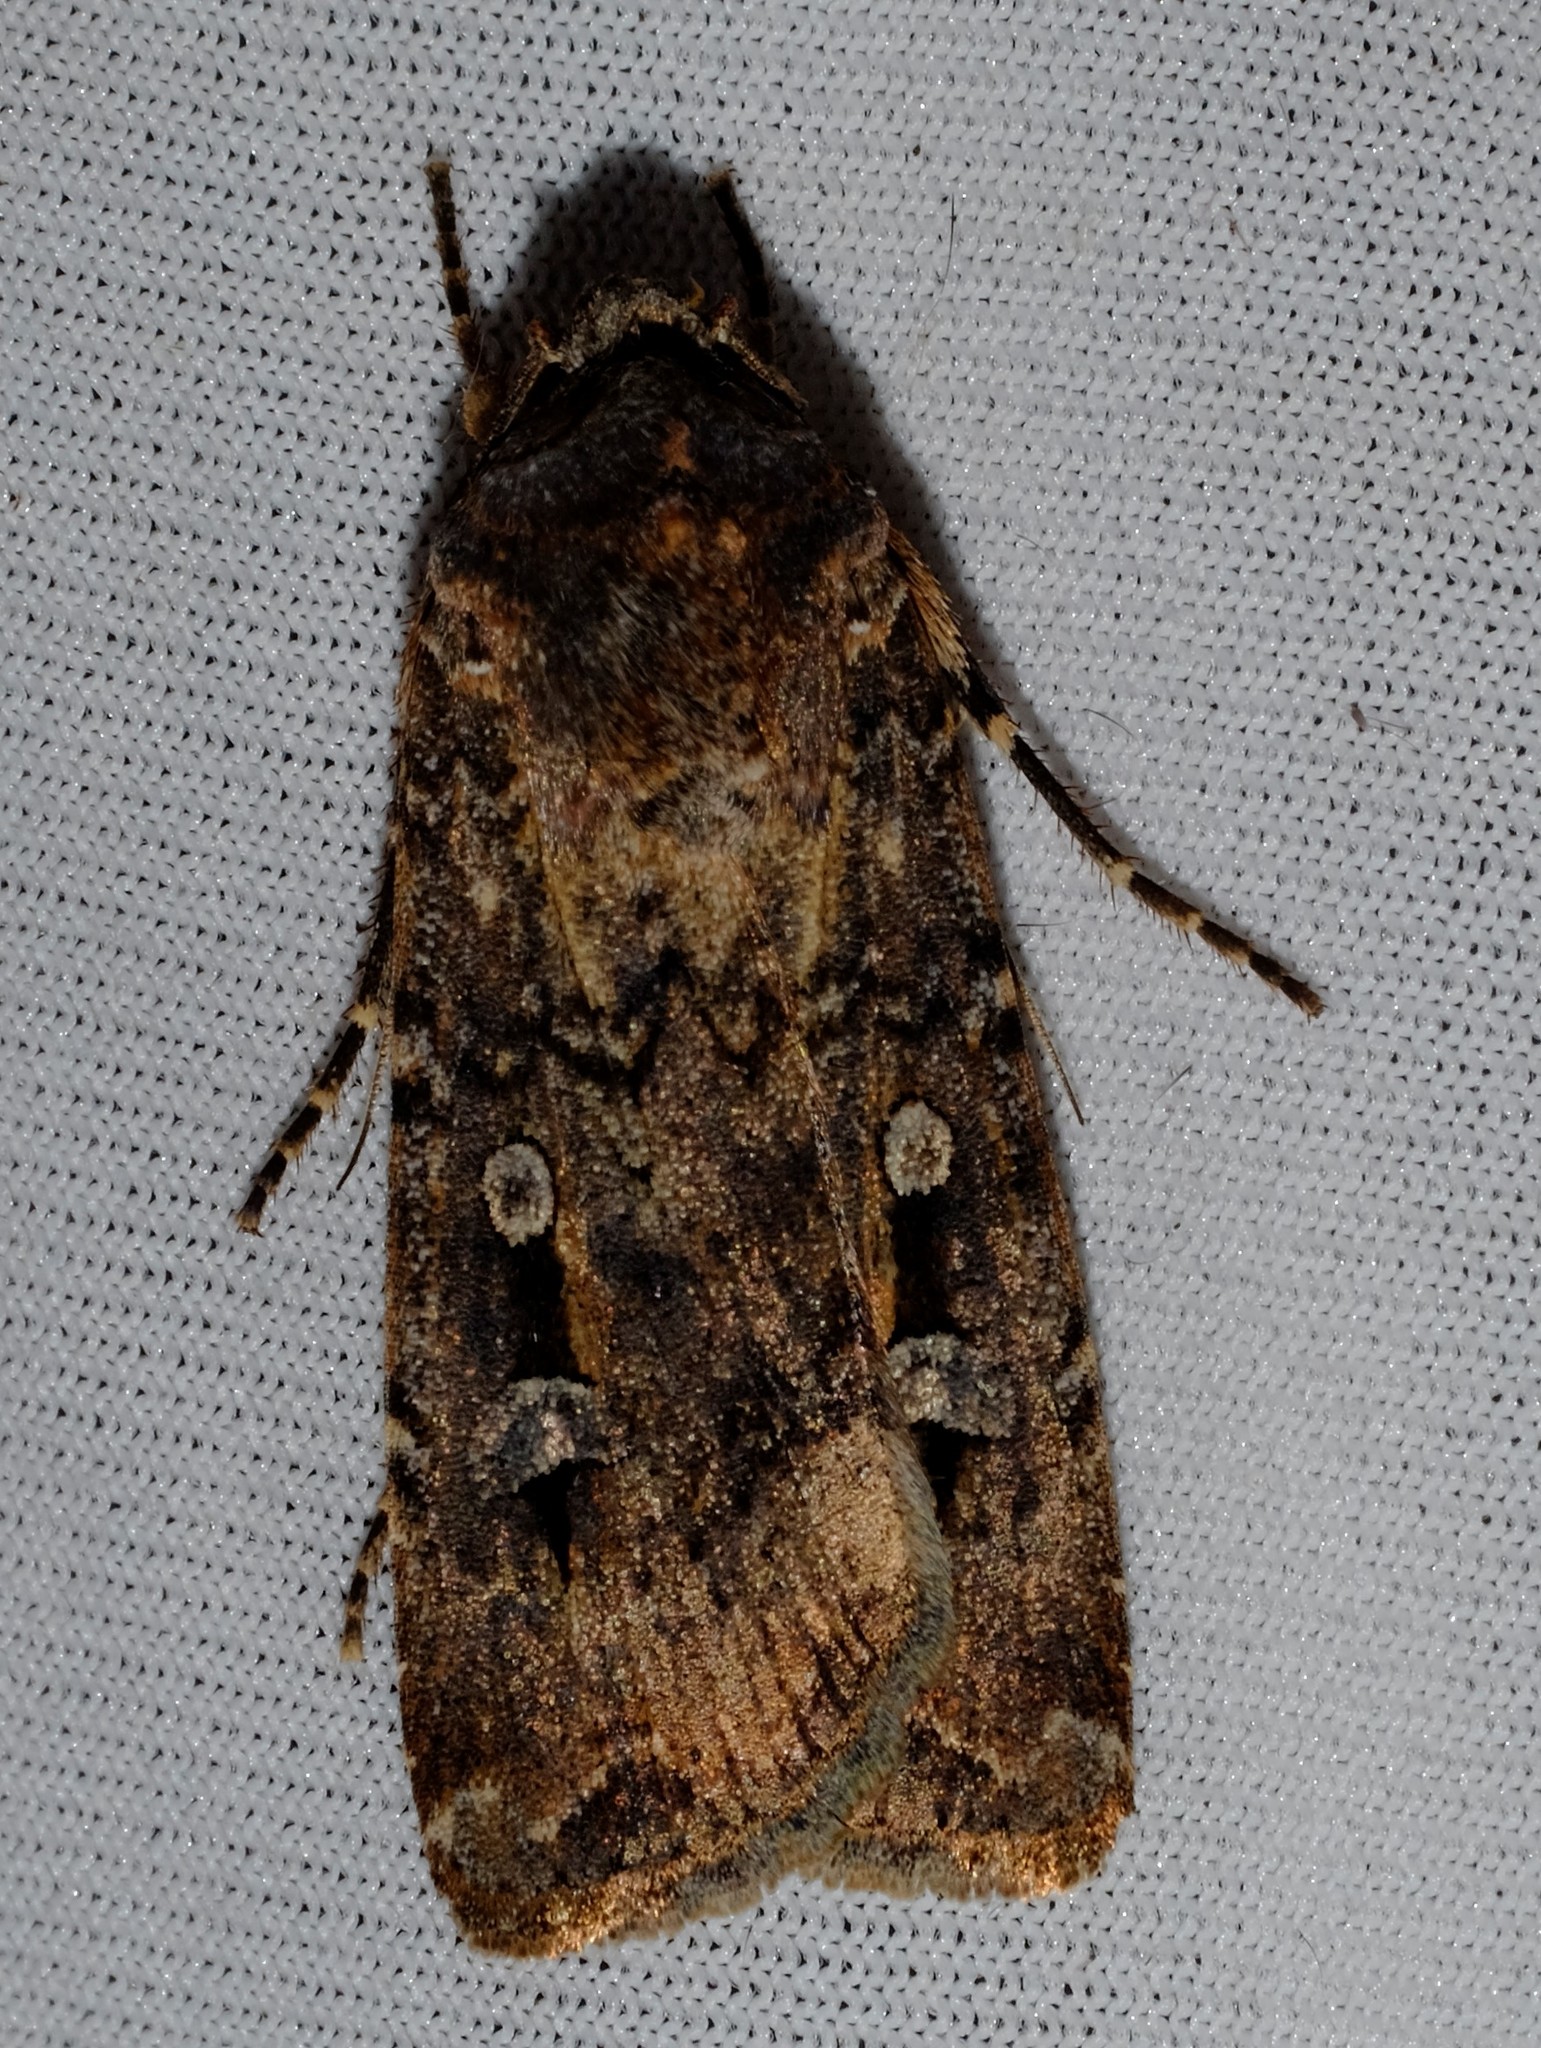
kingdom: Animalia
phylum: Arthropoda
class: Insecta
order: Lepidoptera
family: Noctuidae
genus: Agrotis
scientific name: Agrotis infusa
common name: Bogong moth
